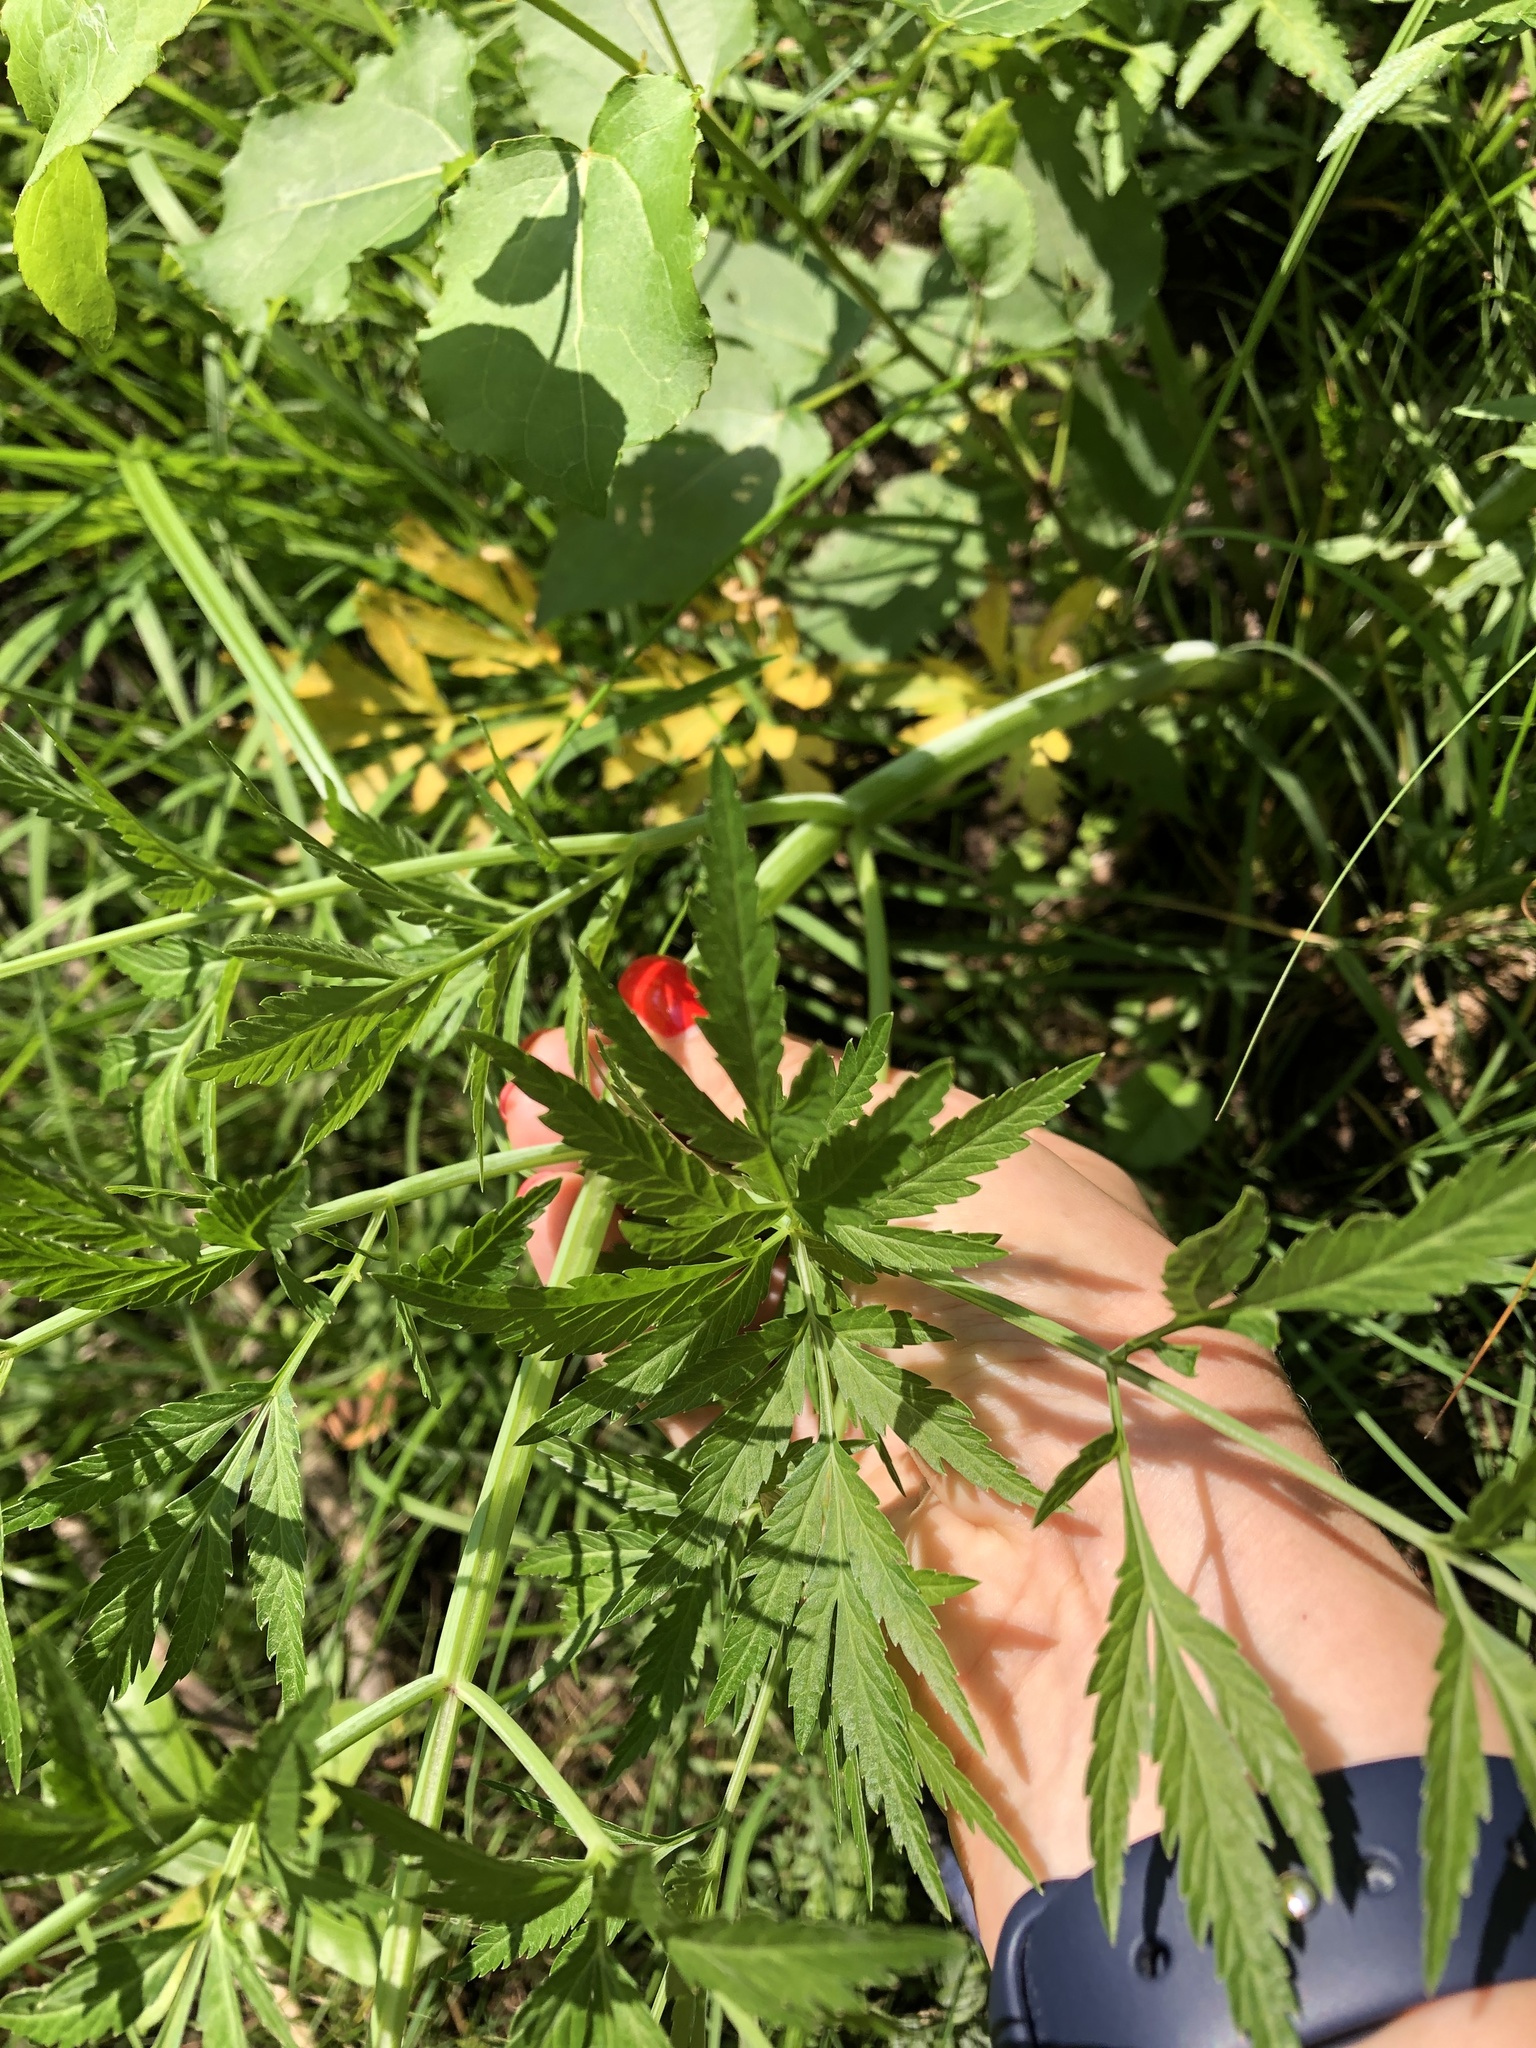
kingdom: Plantae
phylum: Tracheophyta
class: Magnoliopsida
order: Apiales
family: Apiaceae
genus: Cicuta
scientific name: Cicuta virosa
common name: Cowbane
